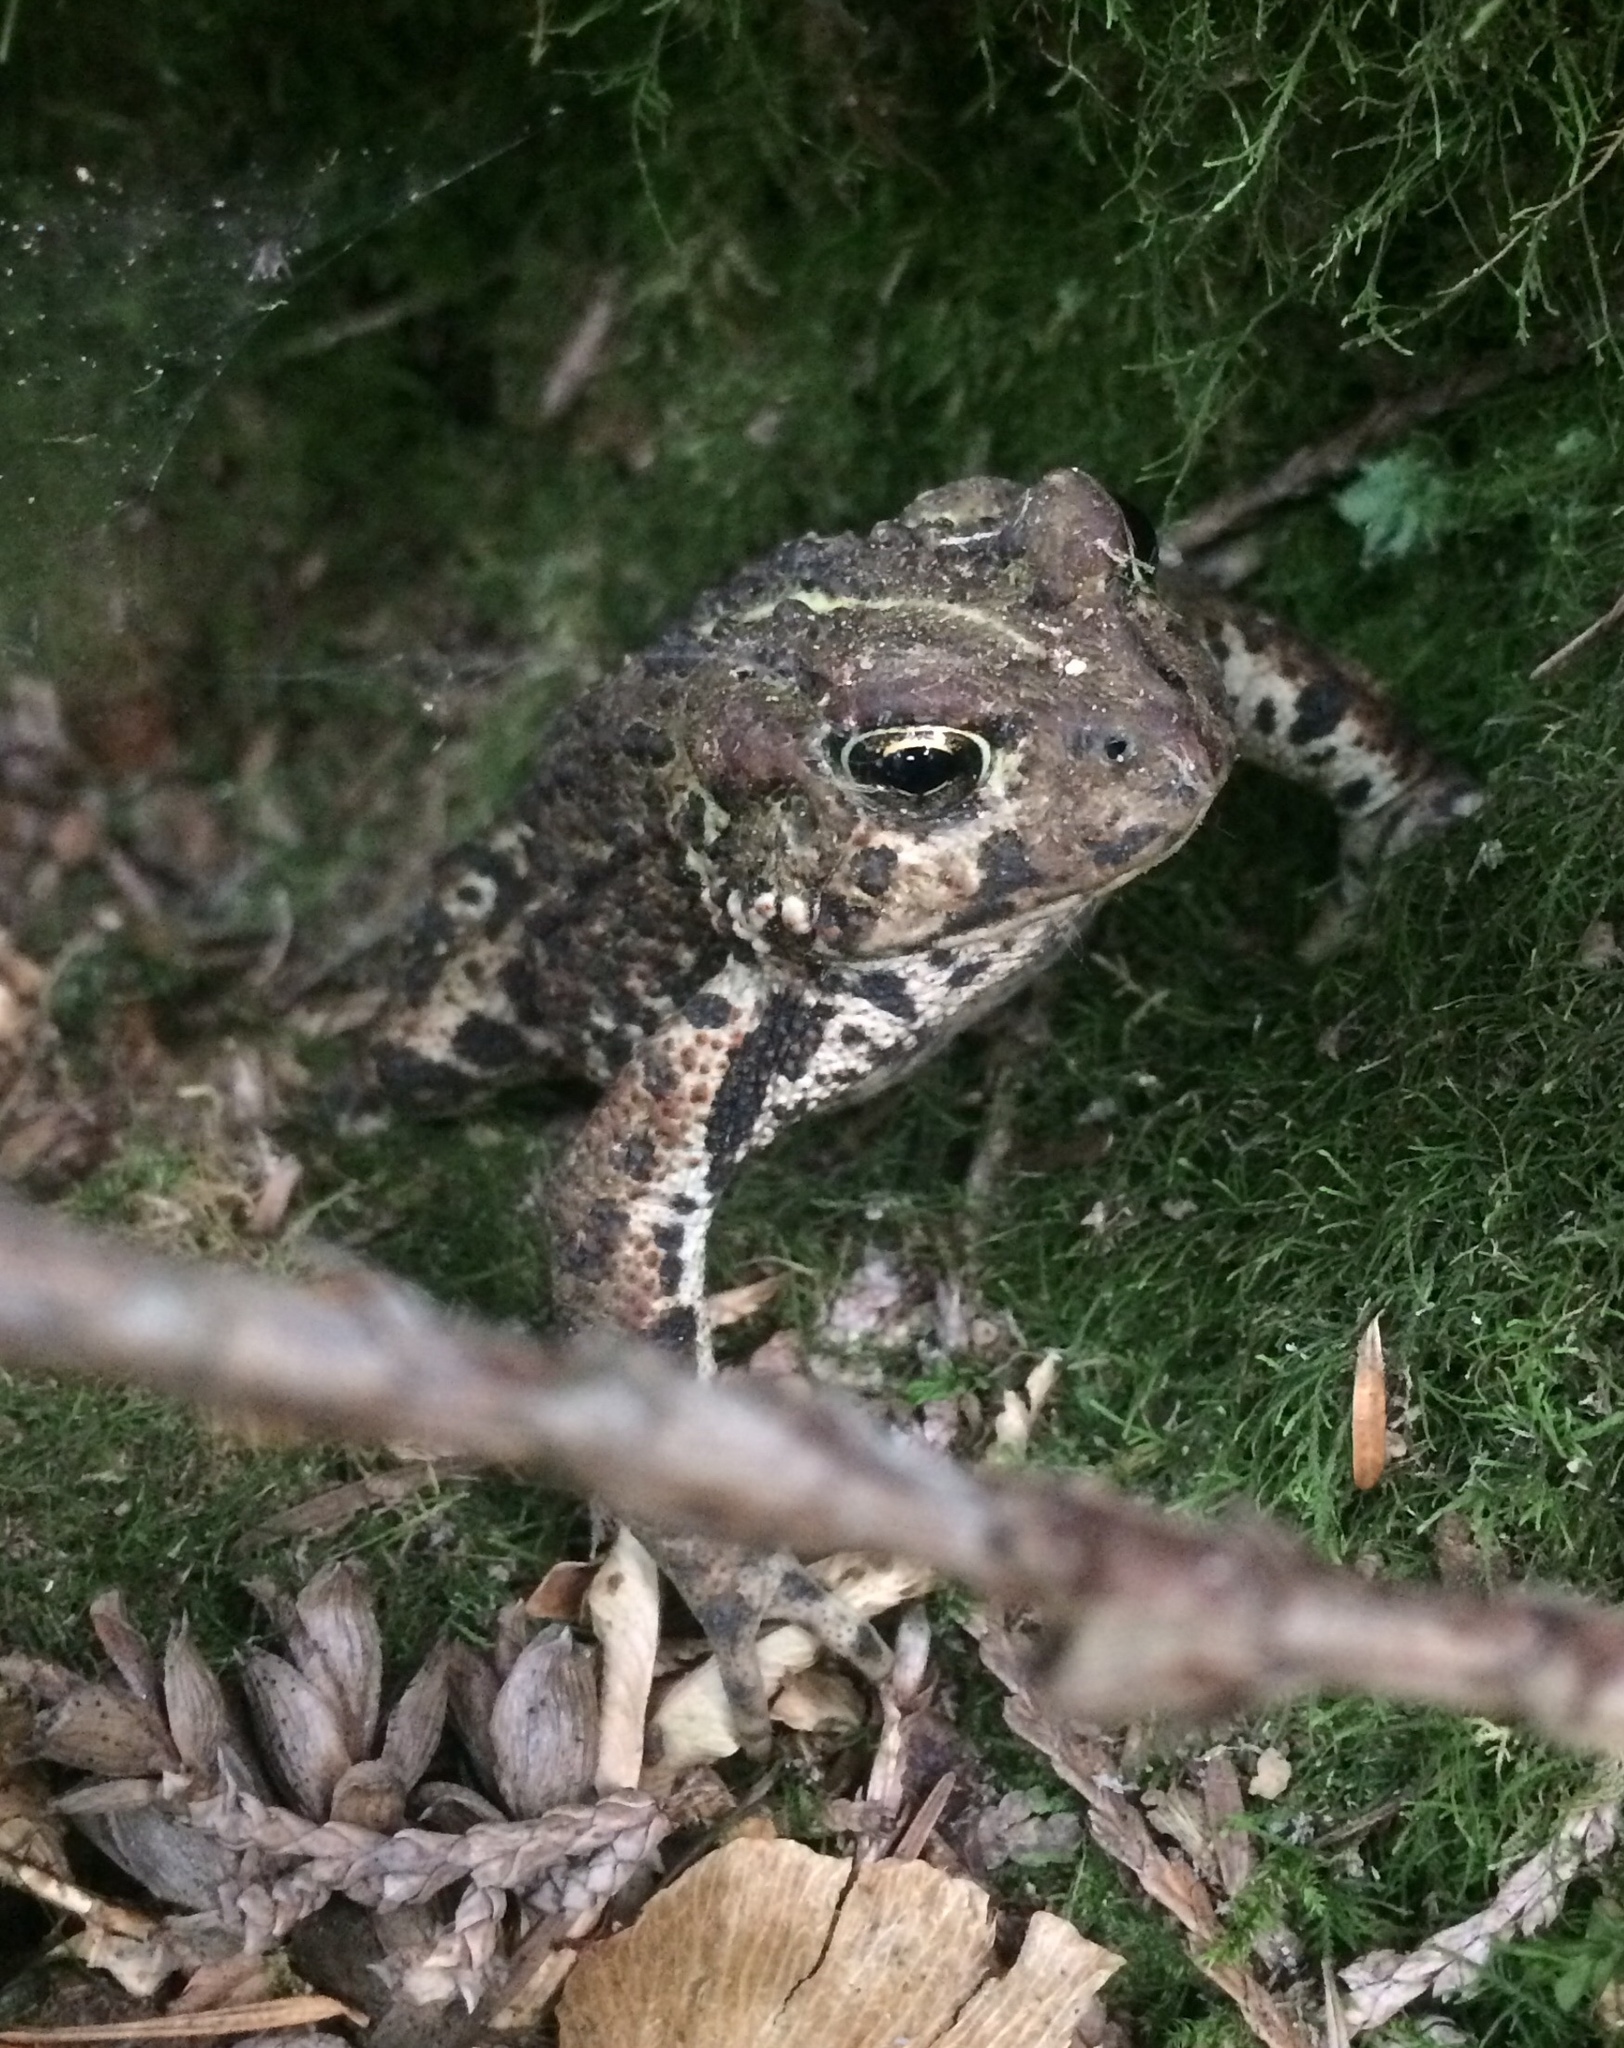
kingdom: Animalia
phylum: Chordata
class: Amphibia
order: Anura
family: Bufonidae
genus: Anaxyrus
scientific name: Anaxyrus boreas
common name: Western toad
